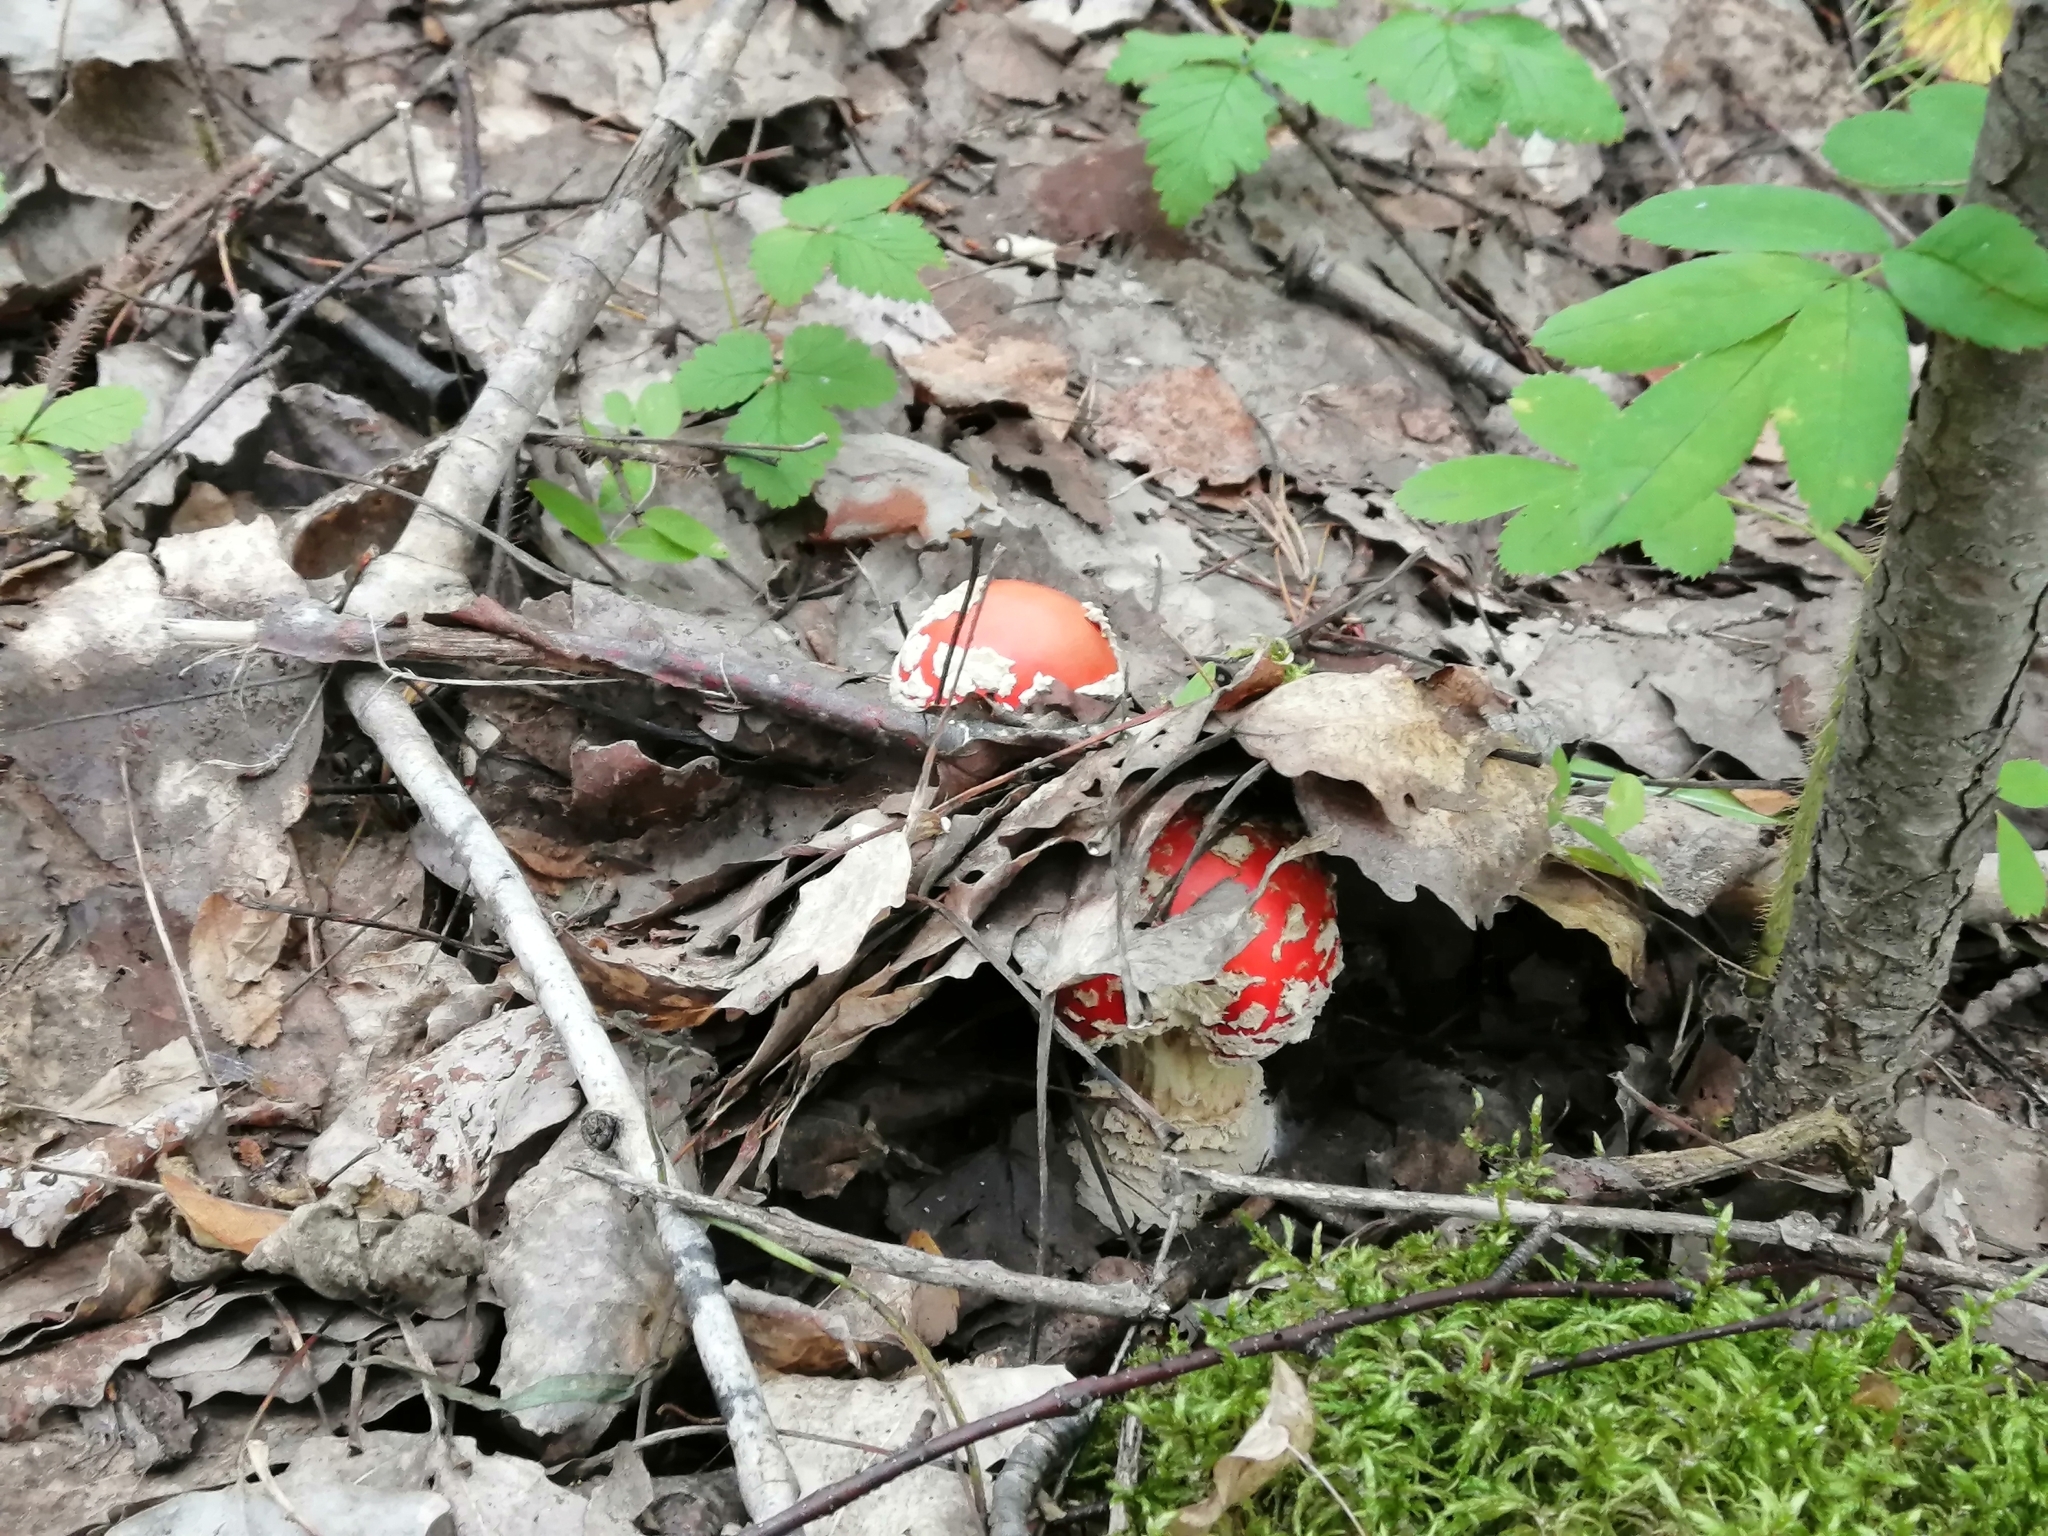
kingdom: Fungi
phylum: Basidiomycota
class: Agaricomycetes
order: Agaricales
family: Amanitaceae
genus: Amanita
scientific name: Amanita muscaria
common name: Fly agaric
